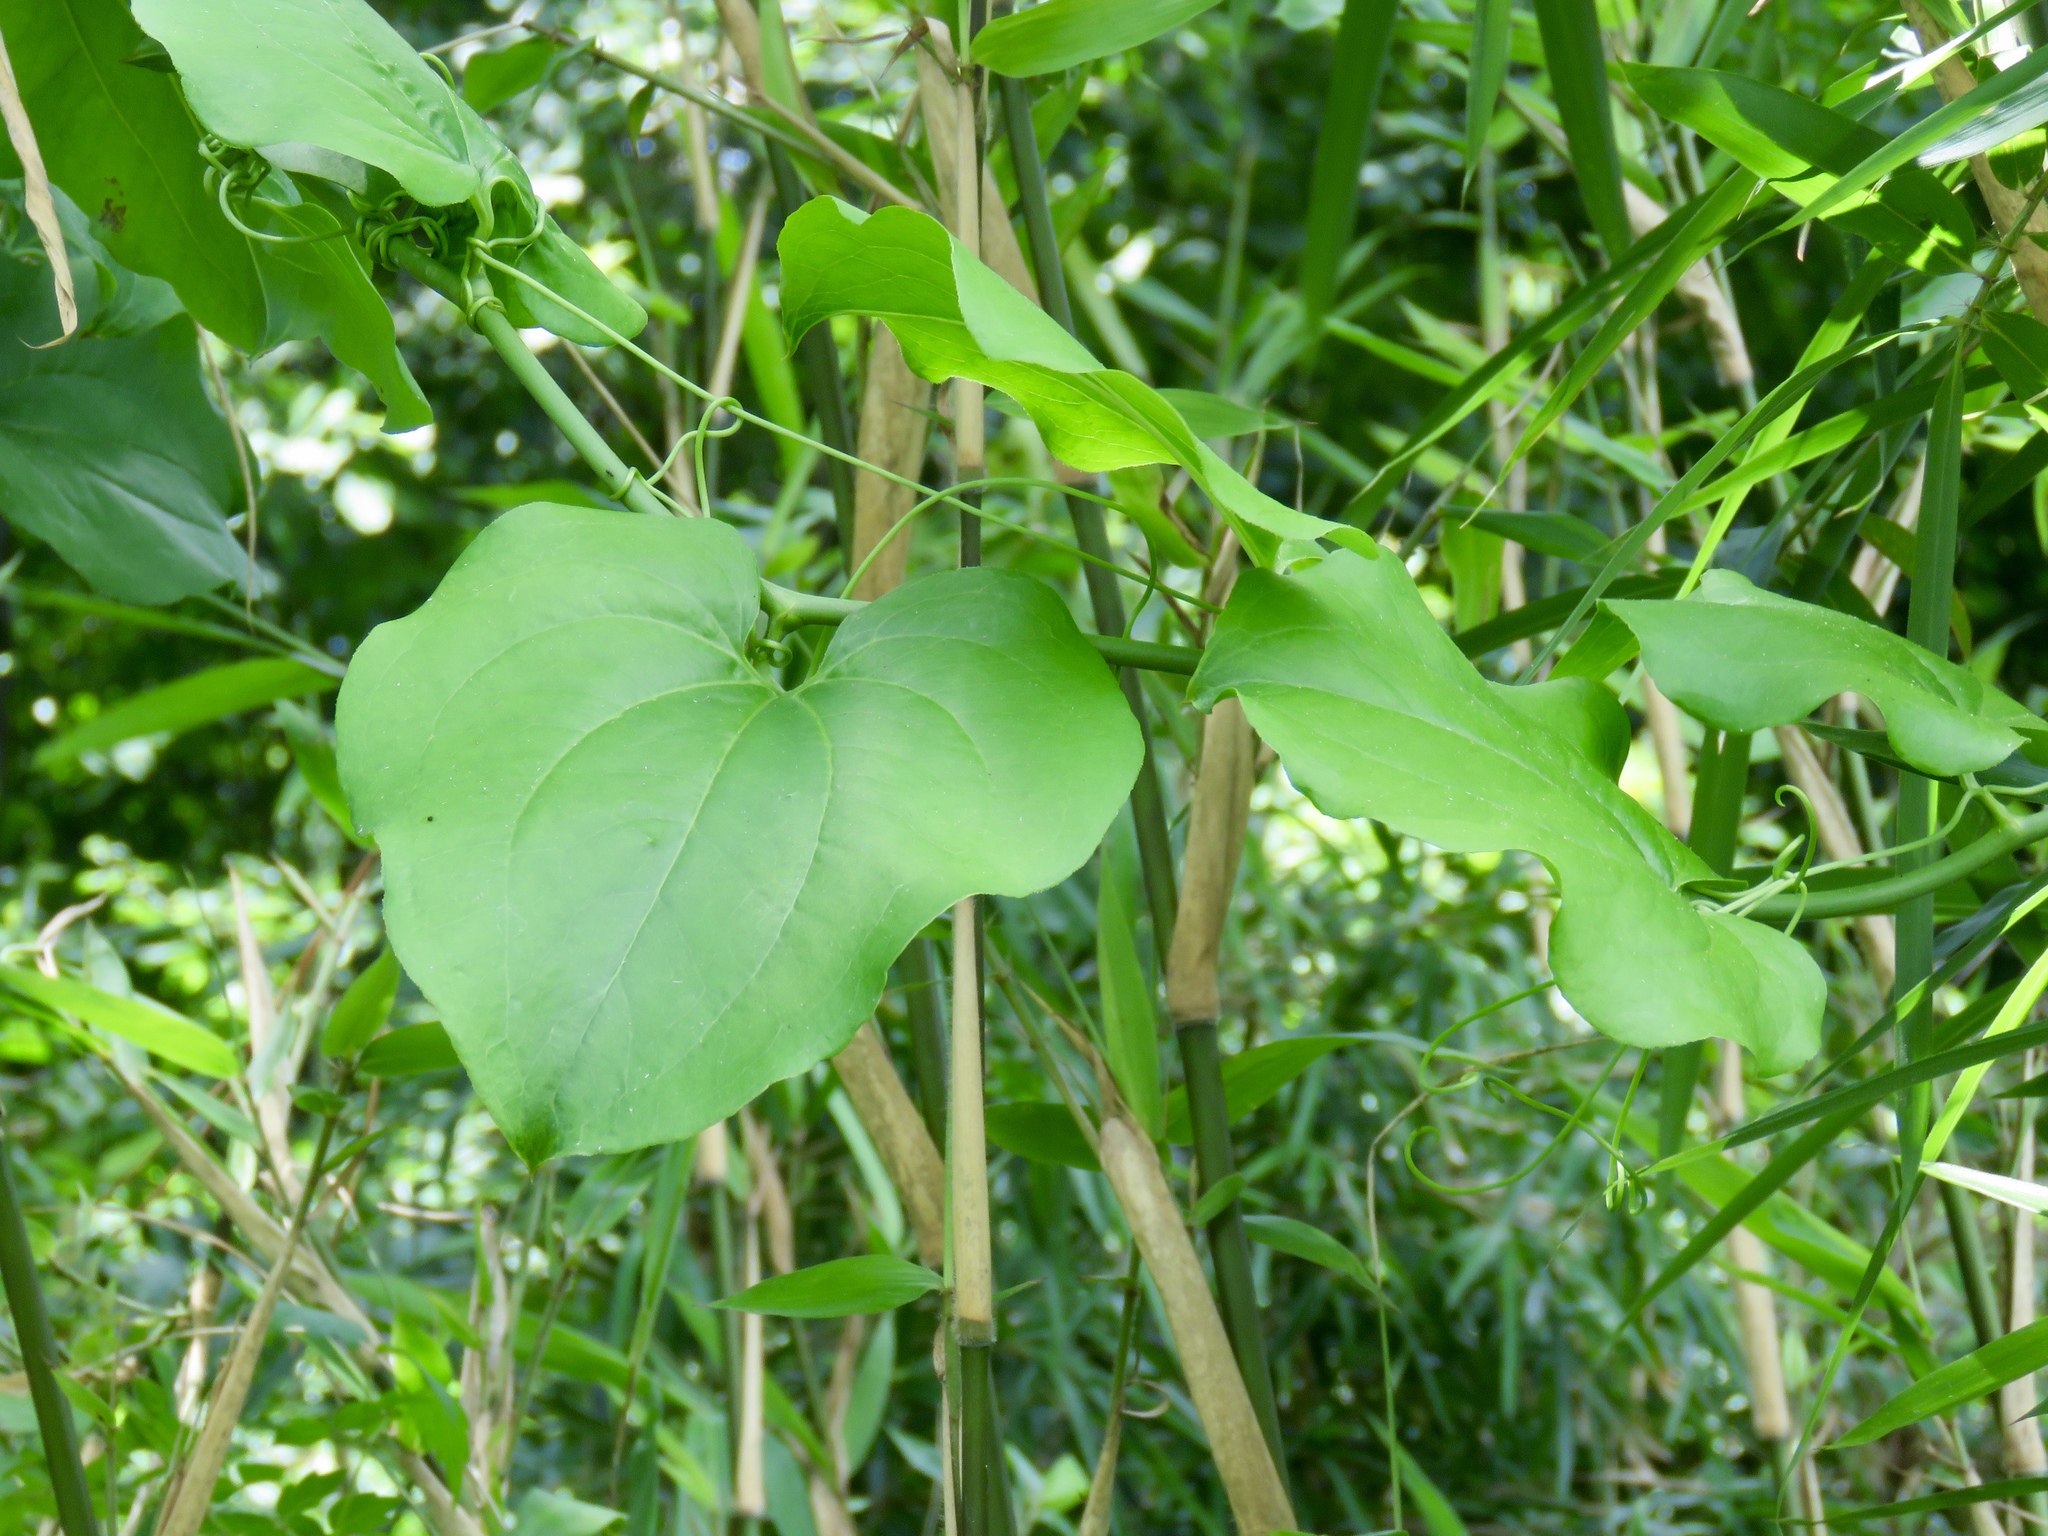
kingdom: Plantae
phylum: Tracheophyta
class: Liliopsida
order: Liliales
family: Smilacaceae
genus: Smilax
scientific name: Smilax rotundifolia
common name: Bullbriar
